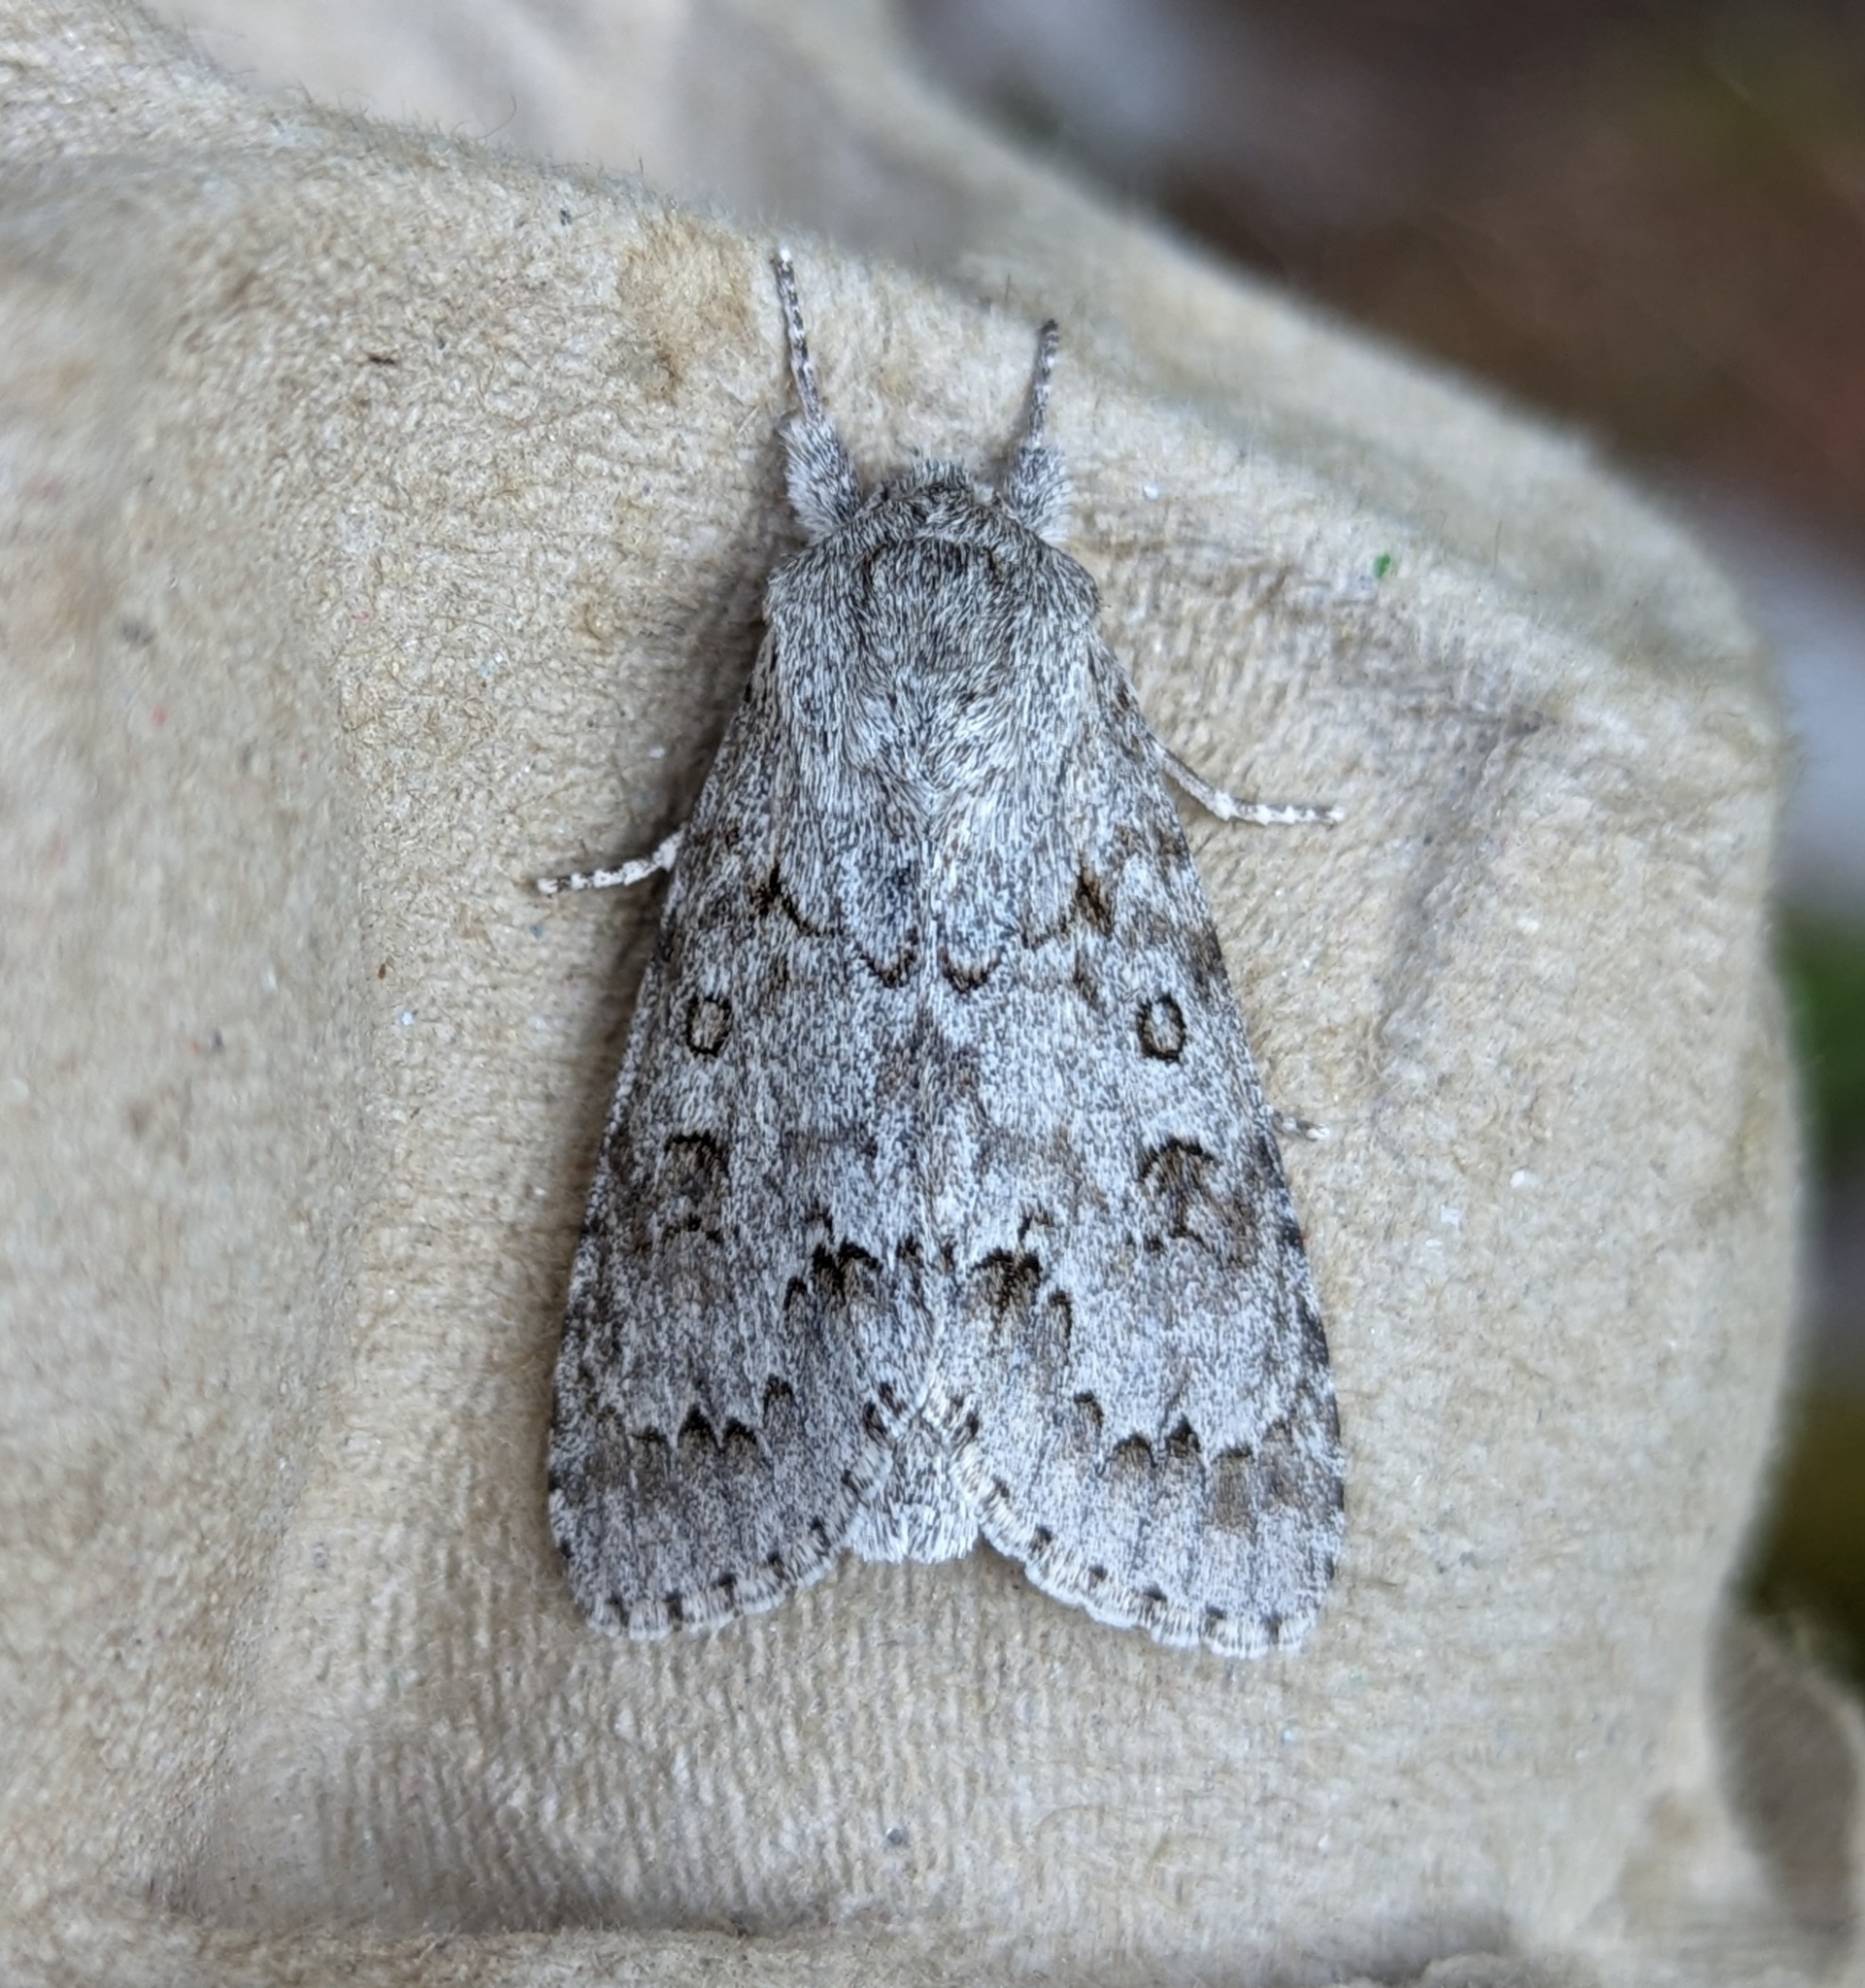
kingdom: Animalia
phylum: Arthropoda
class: Insecta
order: Lepidoptera
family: Noctuidae
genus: Acronicta
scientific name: Acronicta insita
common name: Large gray dagger
